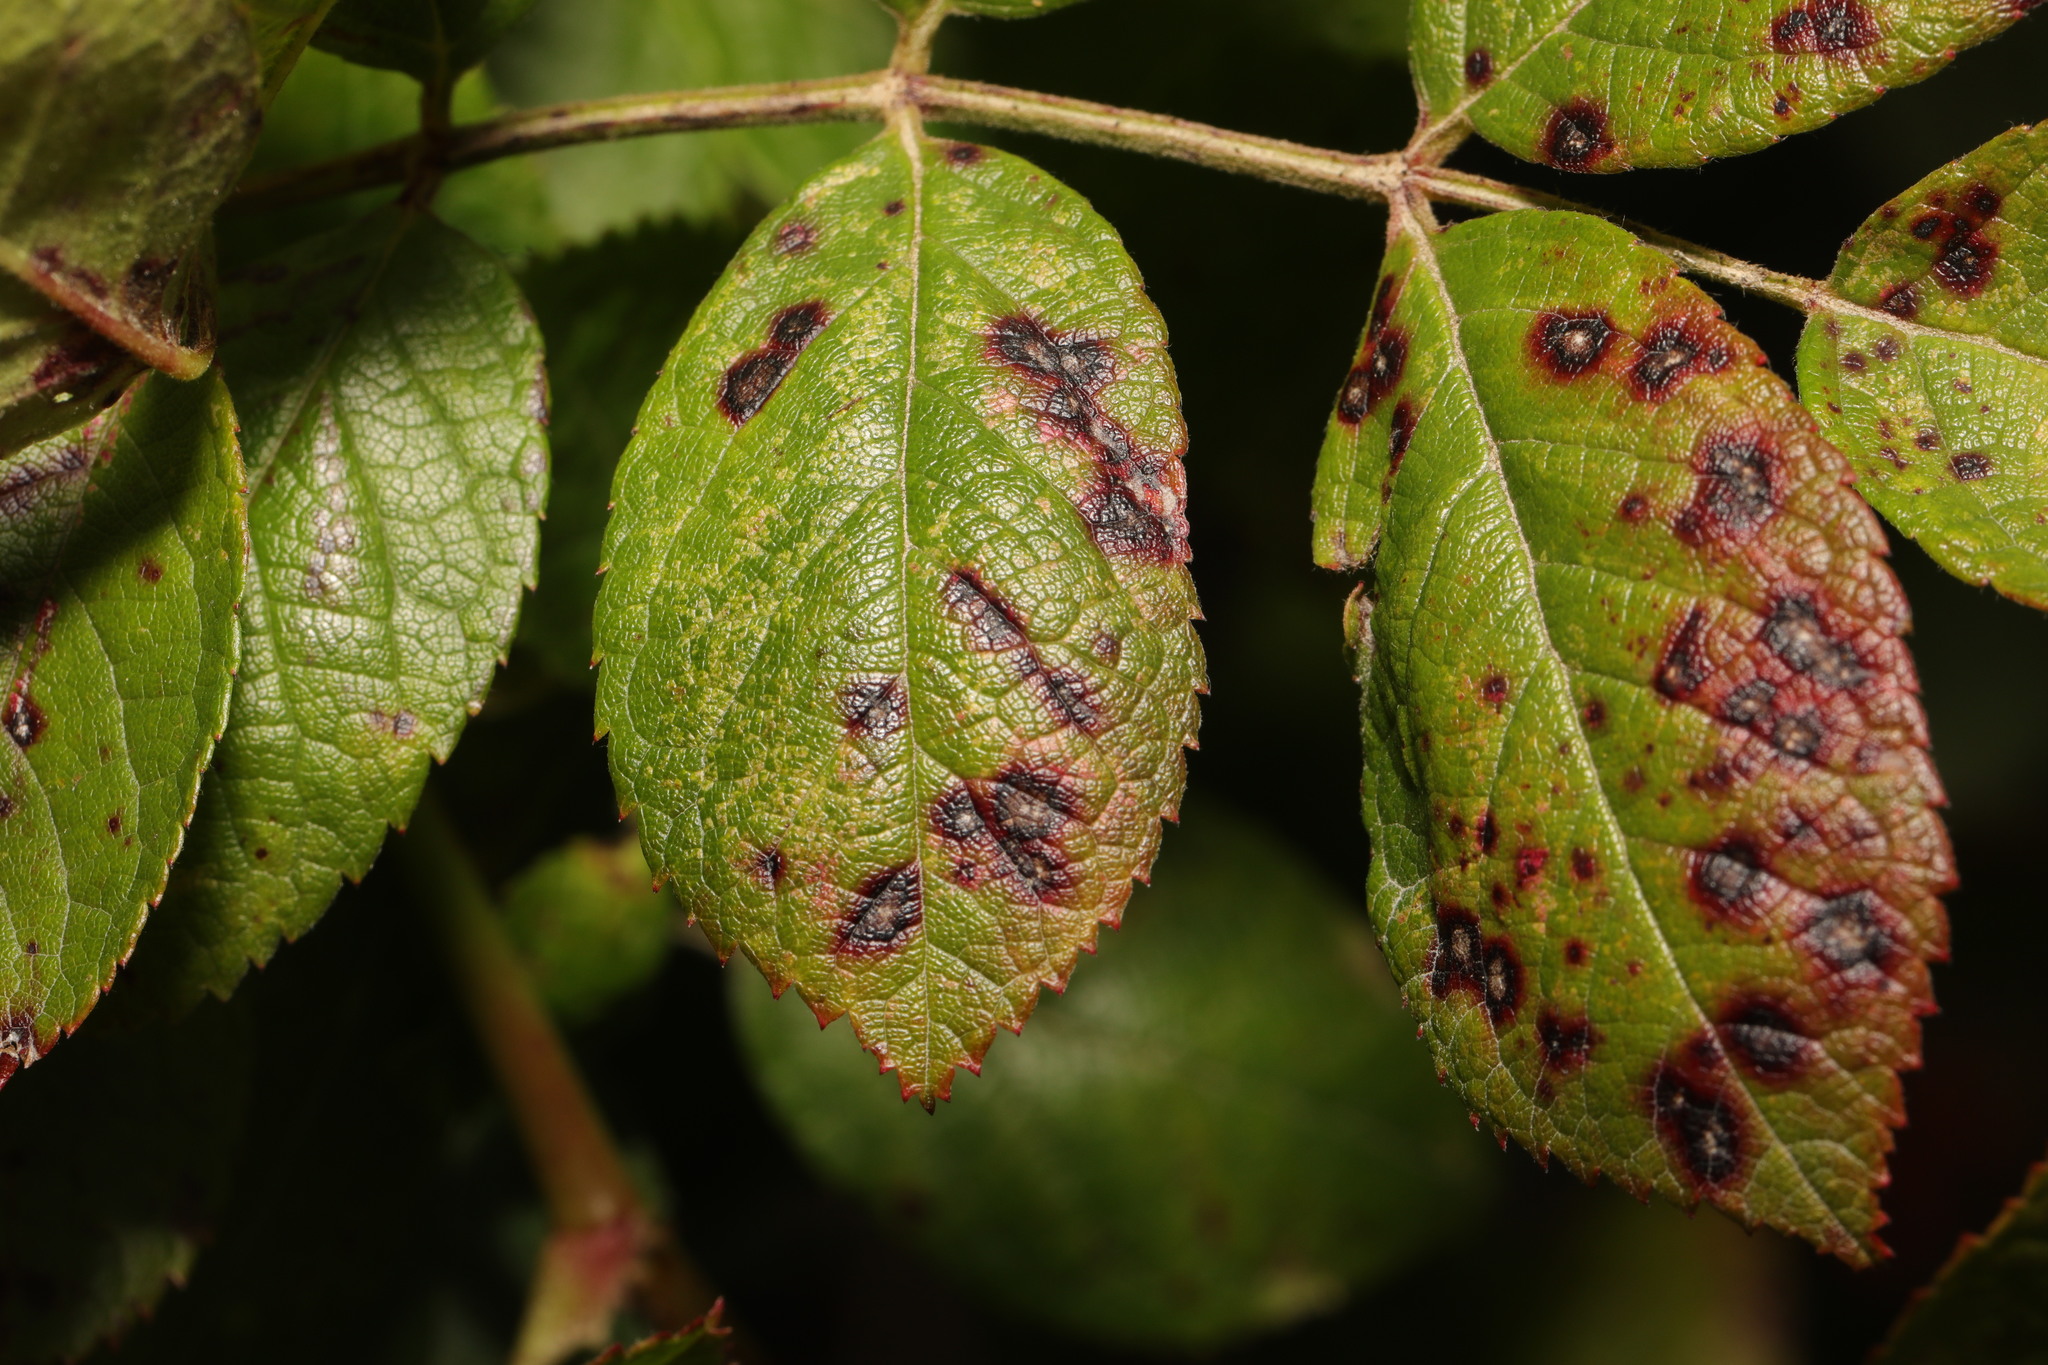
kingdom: Fungi
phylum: Ascomycota
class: Leotiomycetes
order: Helotiales
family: Drepanopezizaceae
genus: Diplocarpon
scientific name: Diplocarpon rosae
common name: Rose black-spot
